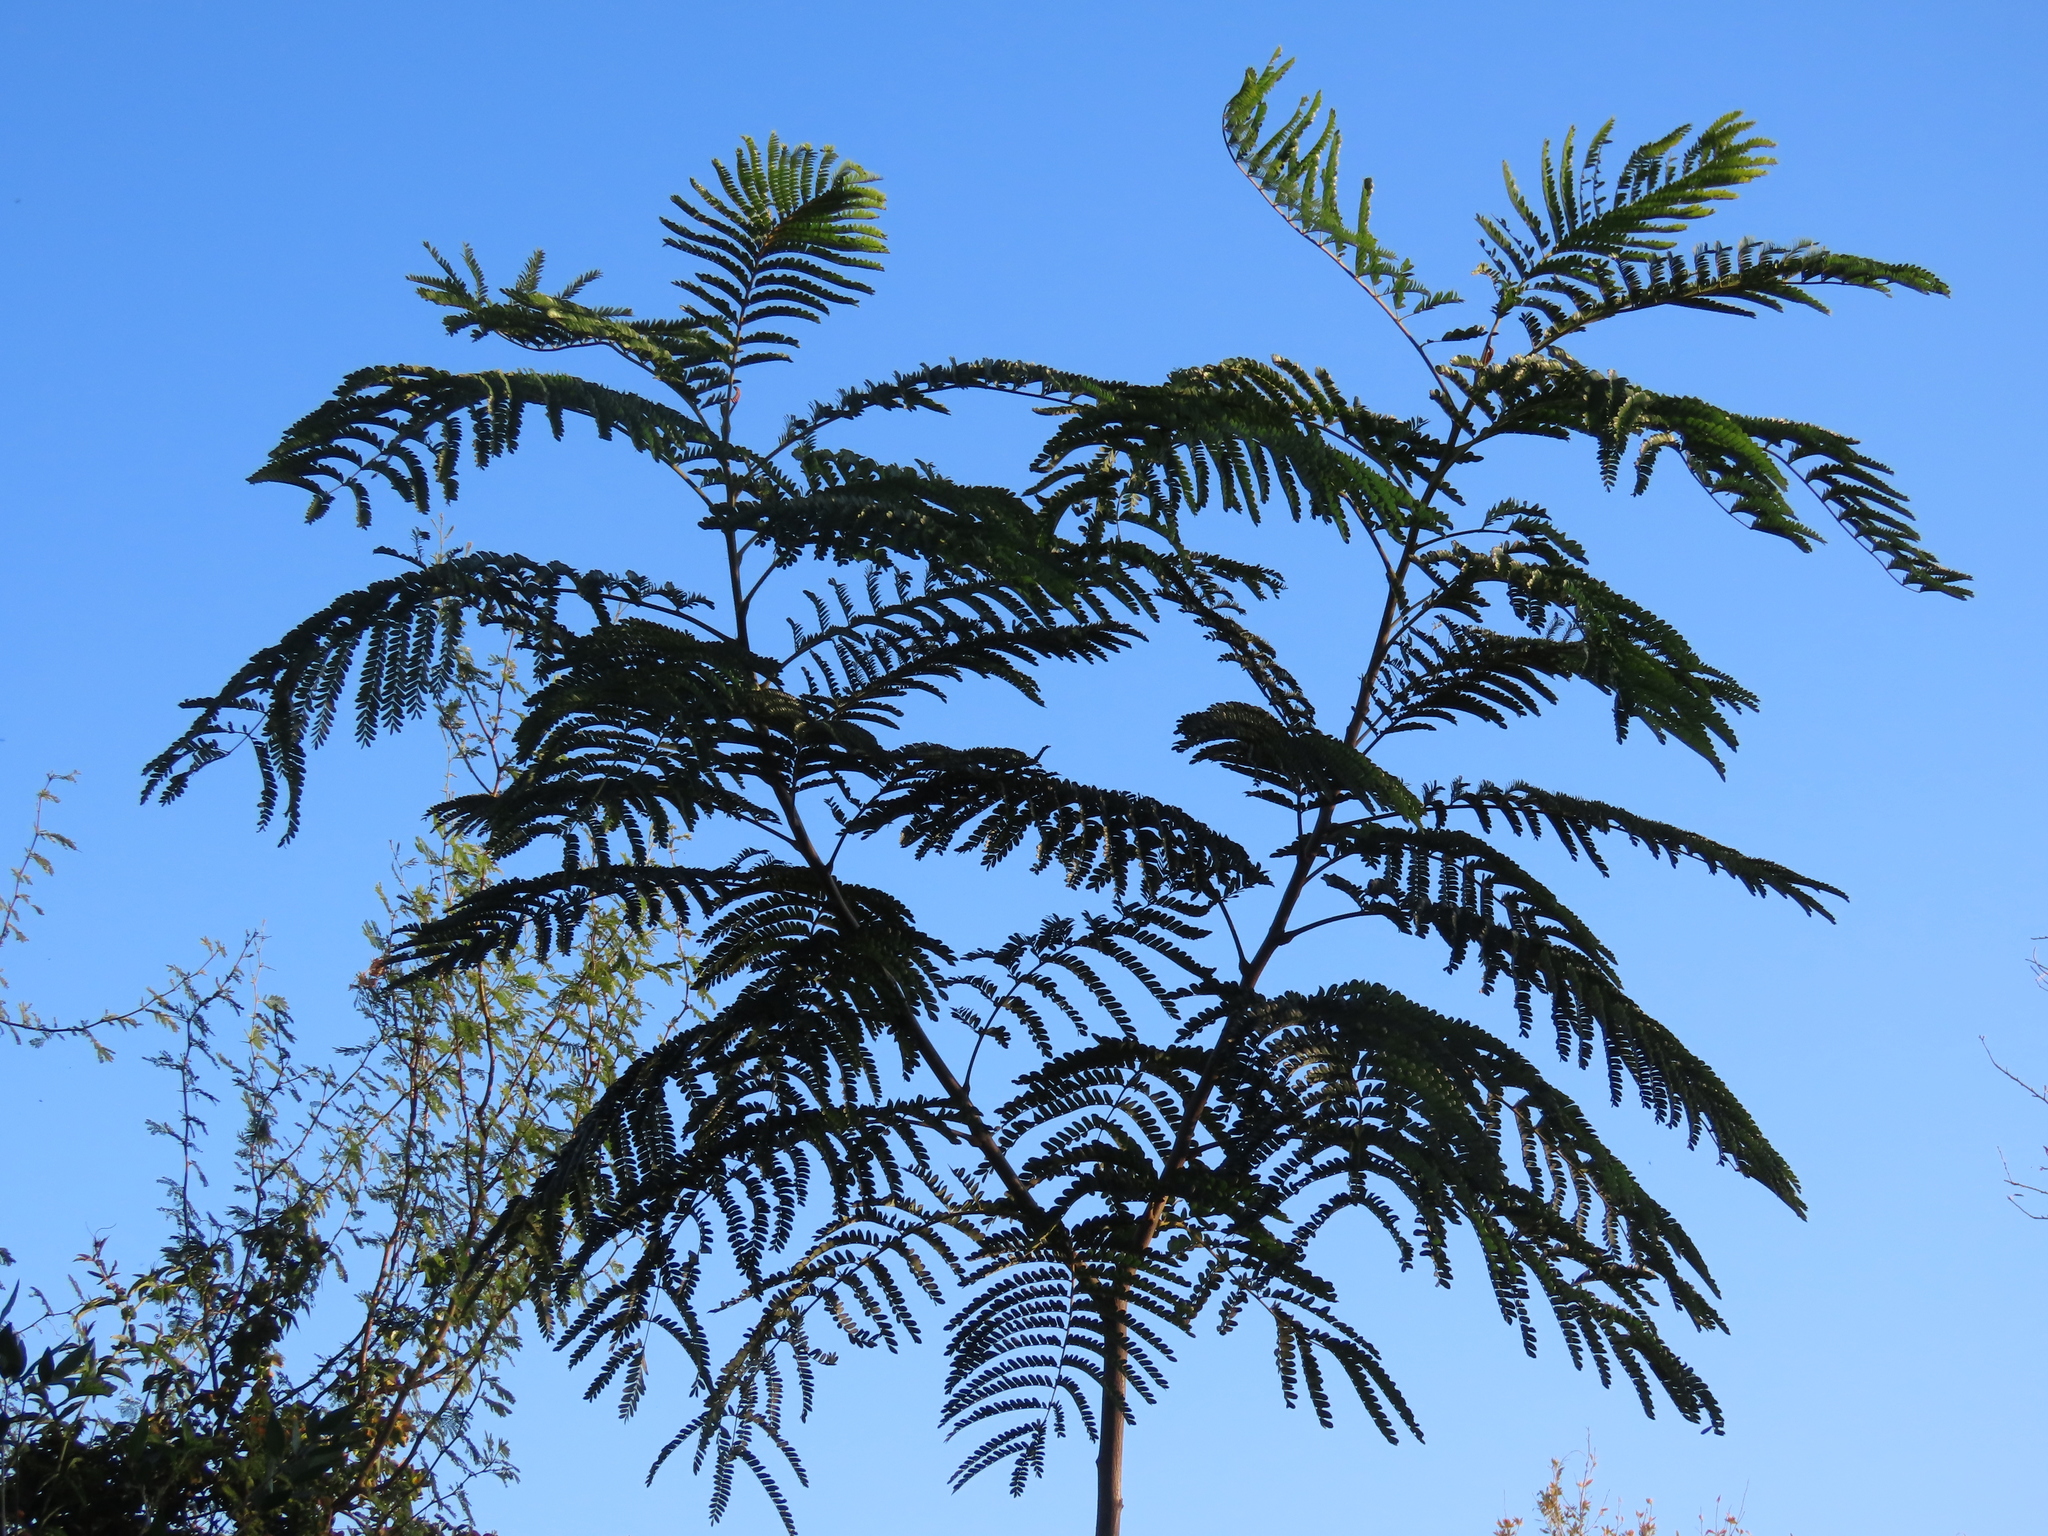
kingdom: Plantae
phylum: Tracheophyta
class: Magnoliopsida
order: Fabales
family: Fabaceae
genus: Peltophorum
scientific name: Peltophorum dubium
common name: Horsebush
